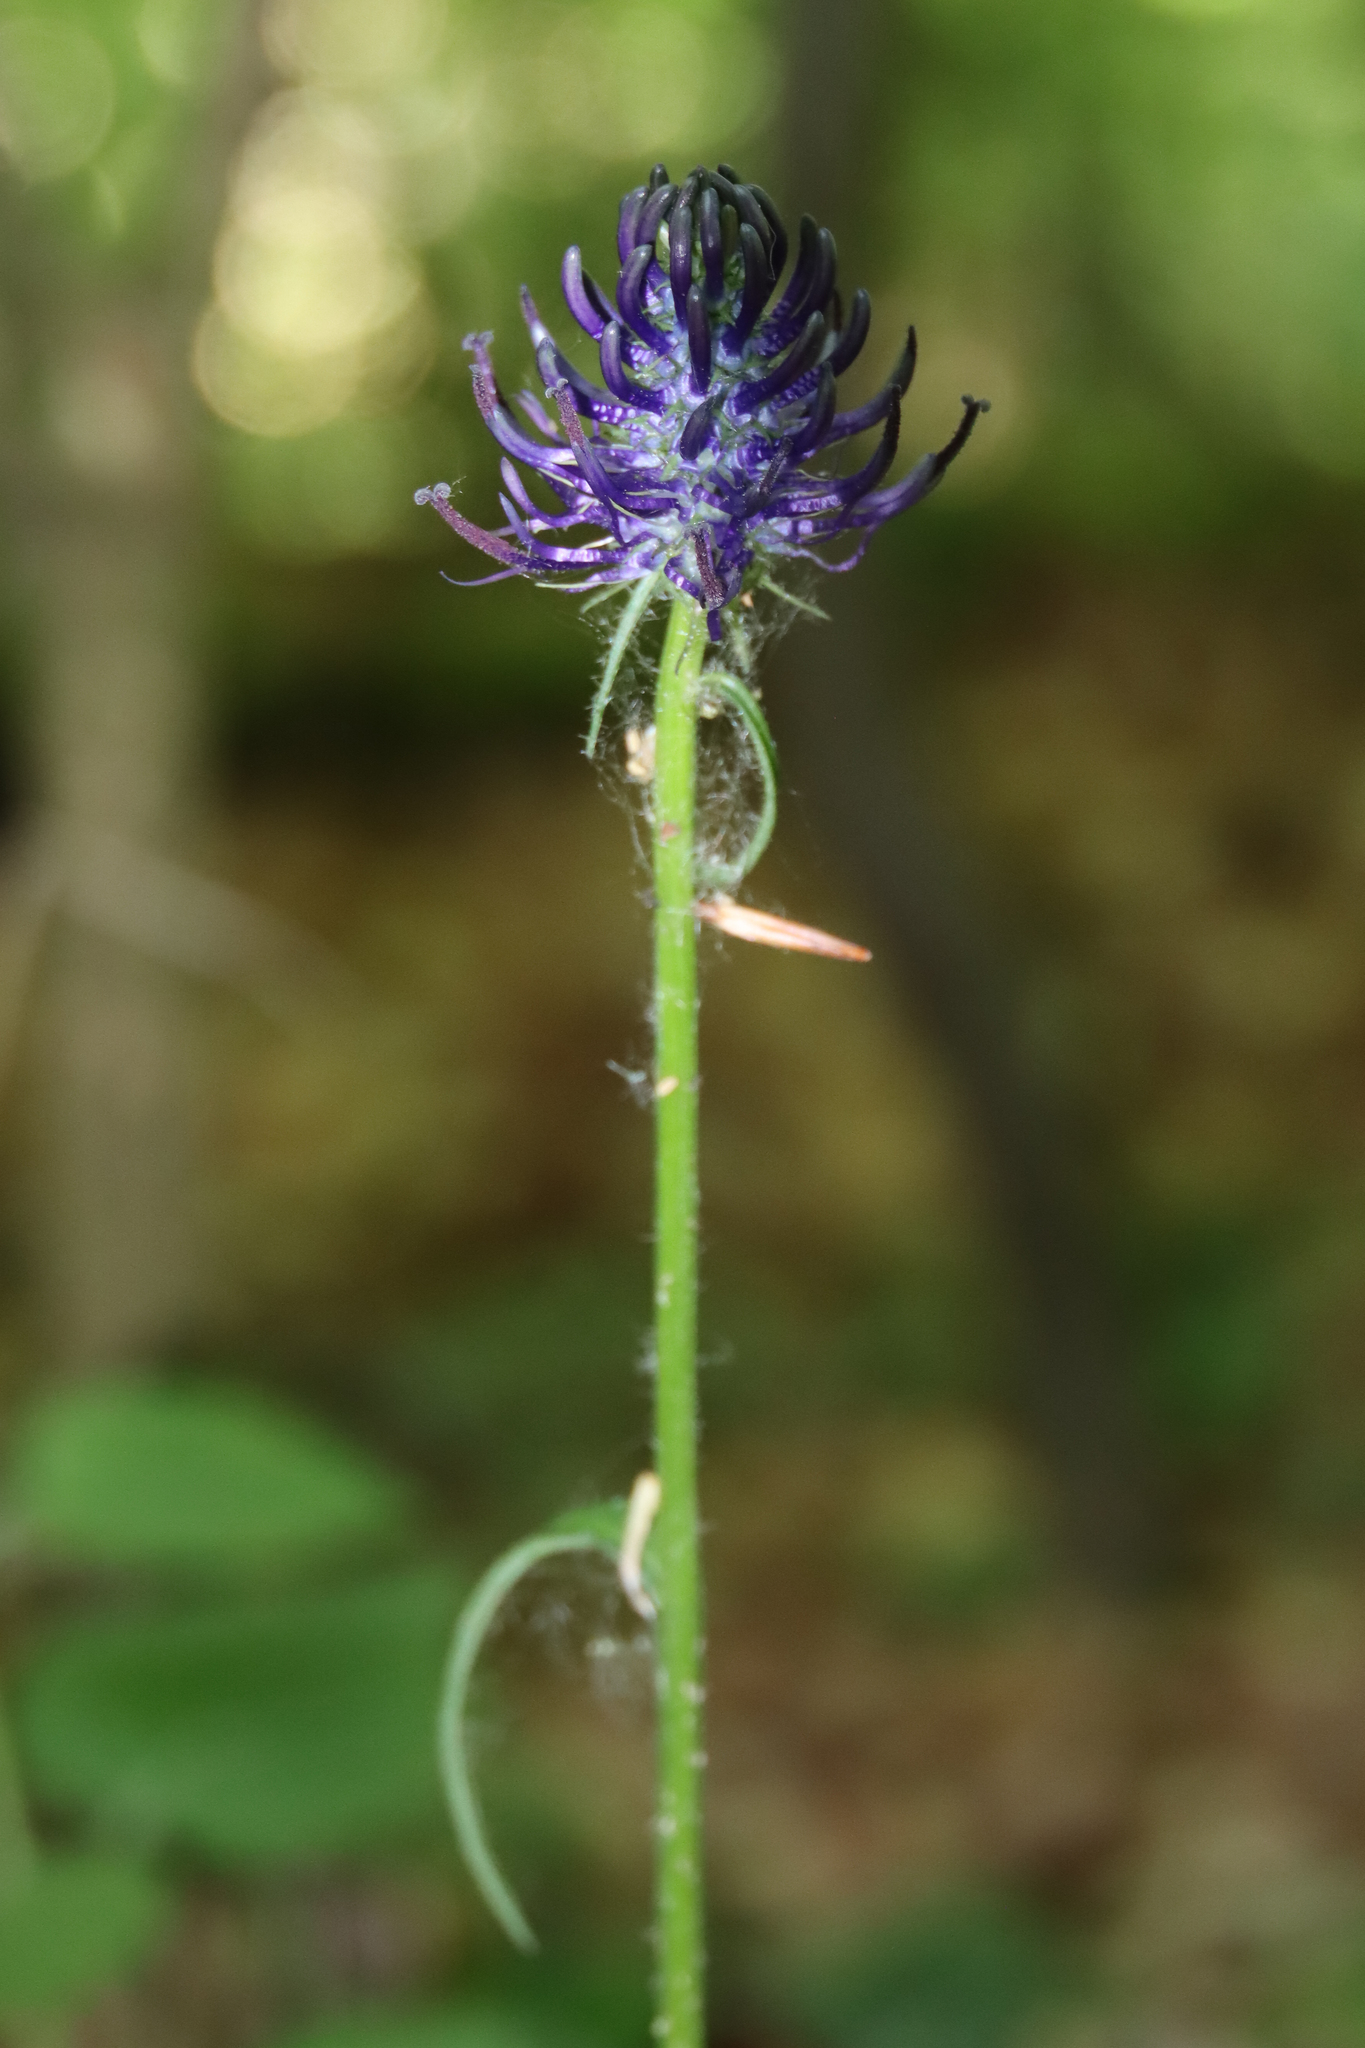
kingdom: Plantae
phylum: Tracheophyta
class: Magnoliopsida
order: Asterales
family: Campanulaceae
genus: Phyteuma
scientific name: Phyteuma nigrum
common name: Black rampion
